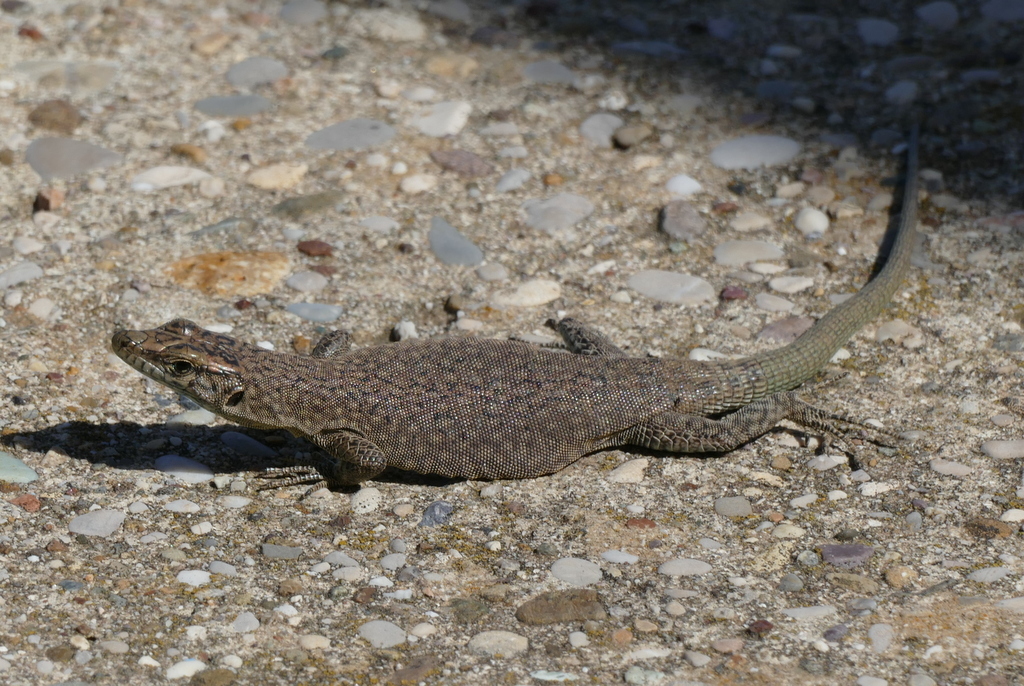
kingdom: Animalia
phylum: Chordata
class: Squamata
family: Lacertidae
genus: Dalmatolacerta
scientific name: Dalmatolacerta oxycephala
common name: Sharp-snouted rock lizard
